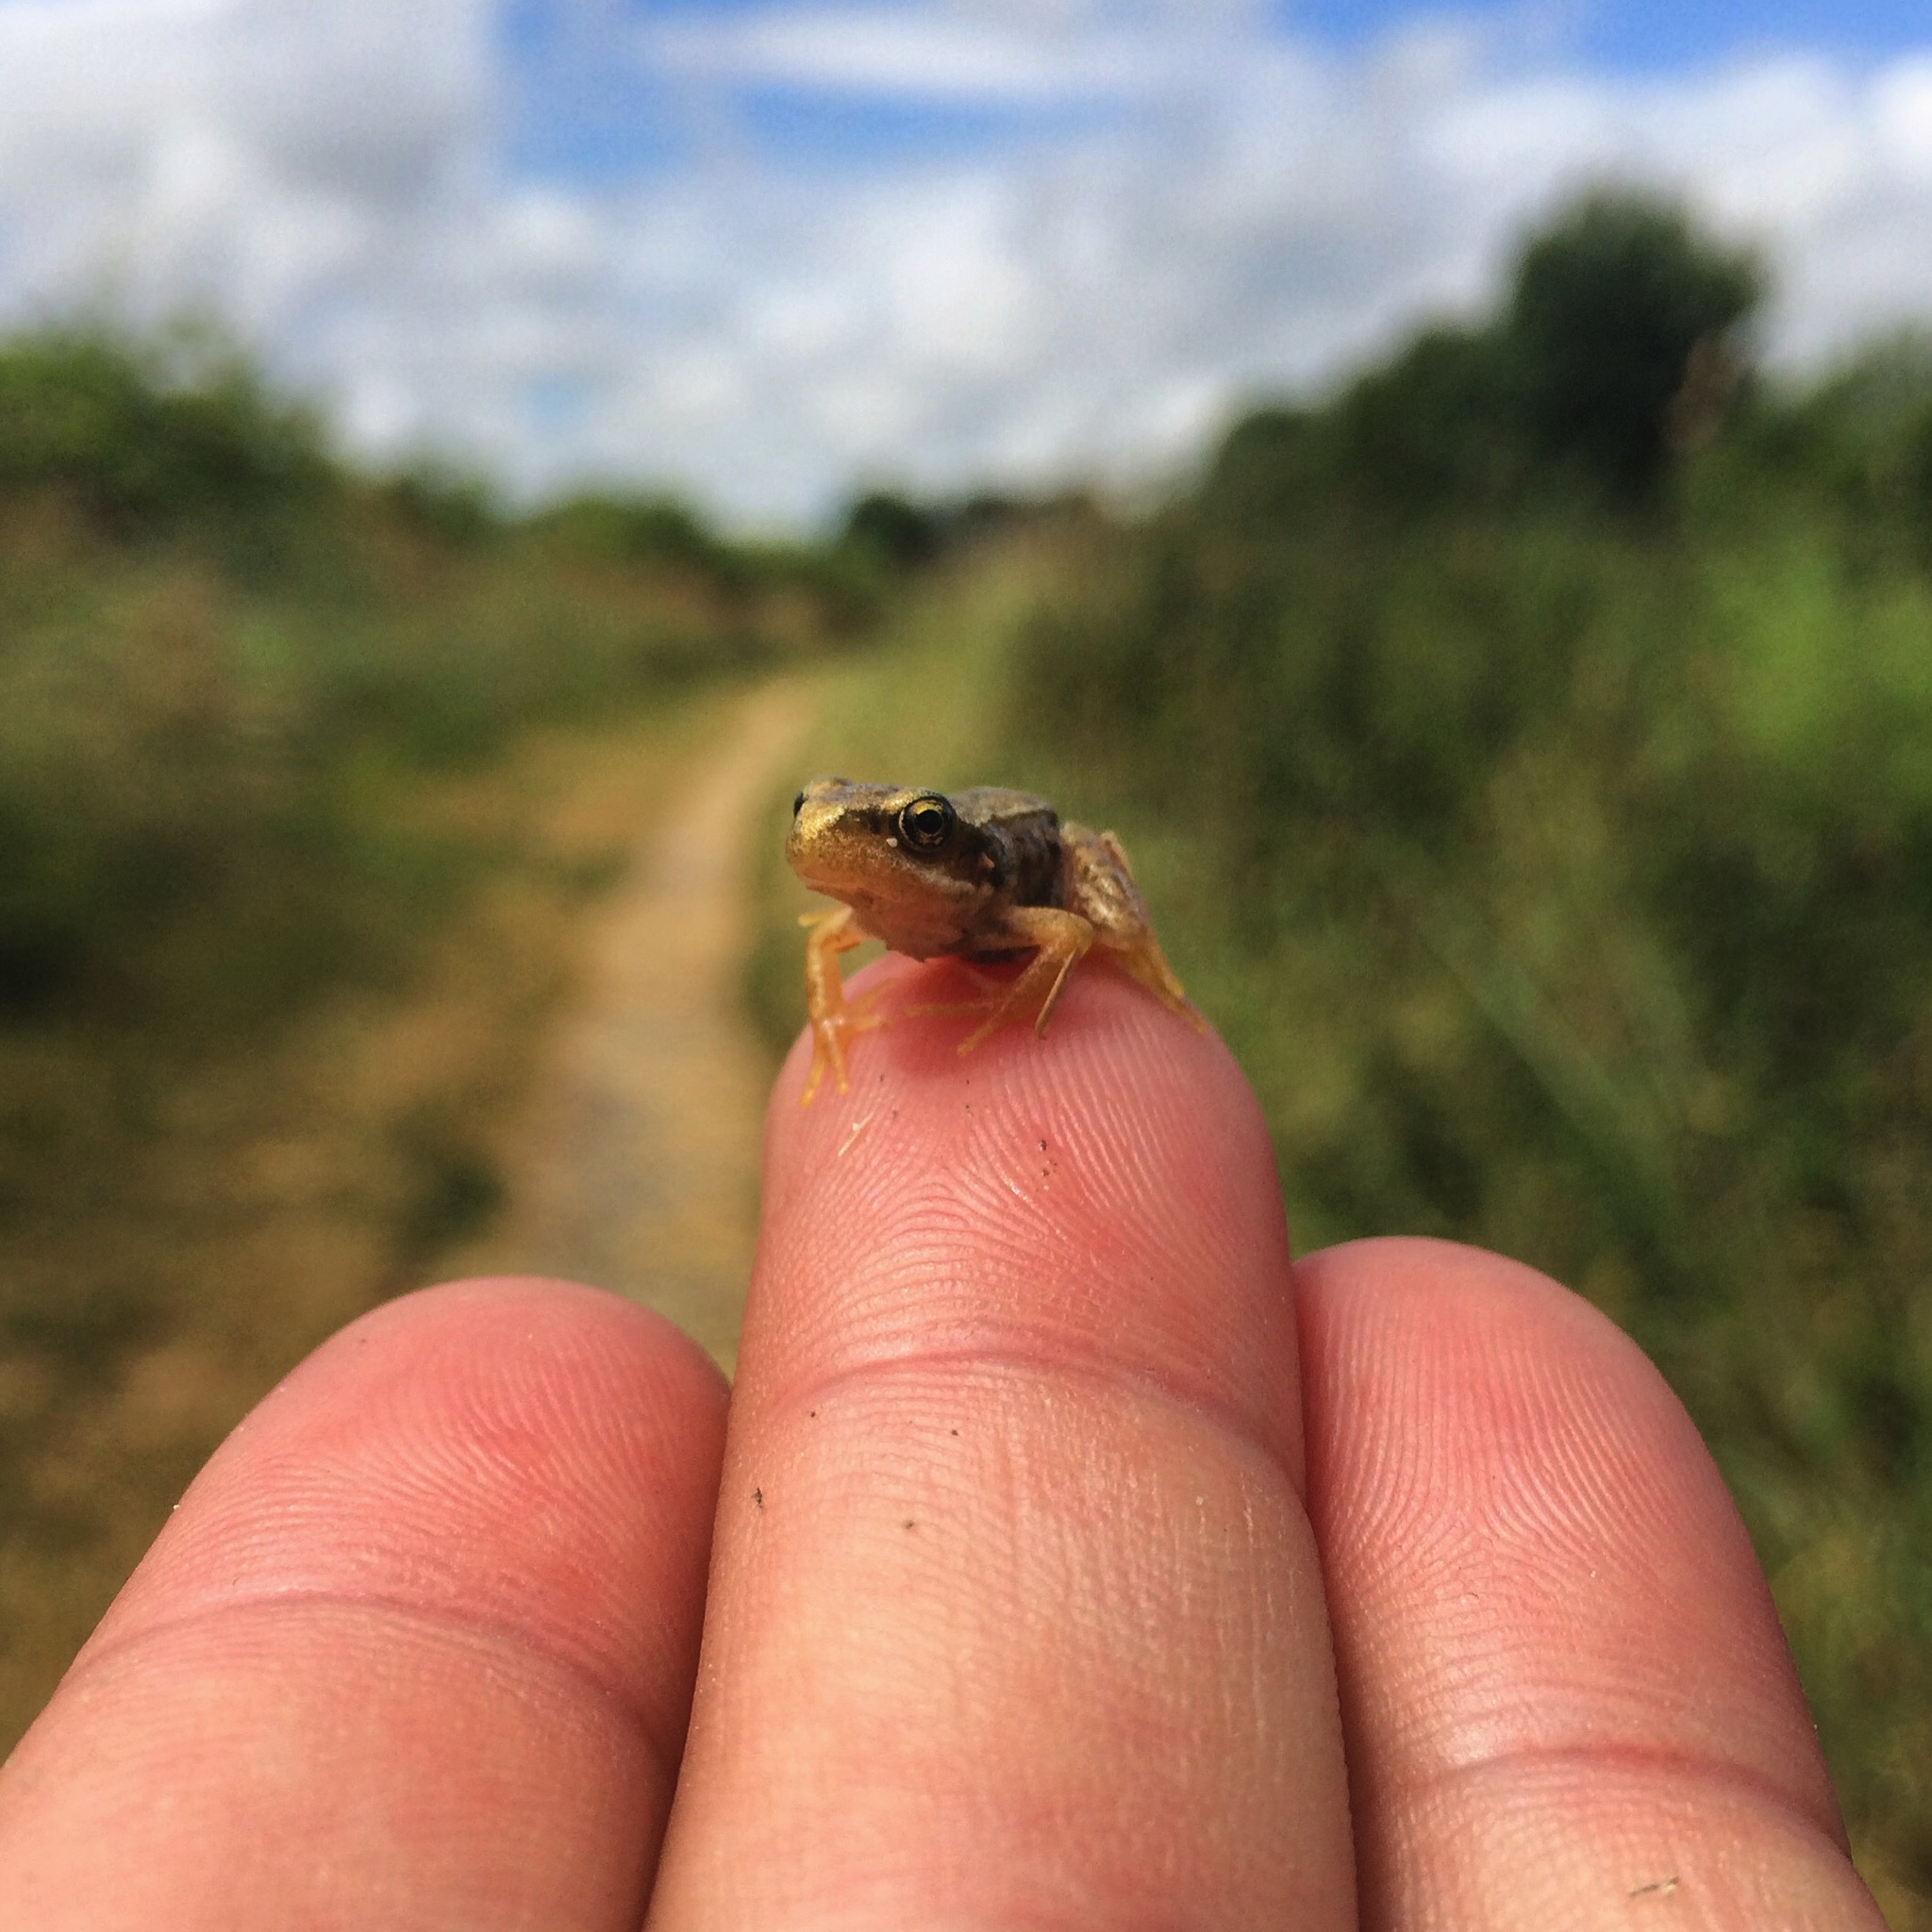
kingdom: Animalia
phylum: Chordata
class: Amphibia
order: Anura
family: Ranidae
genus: Rana
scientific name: Rana temporaria
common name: Common frog
